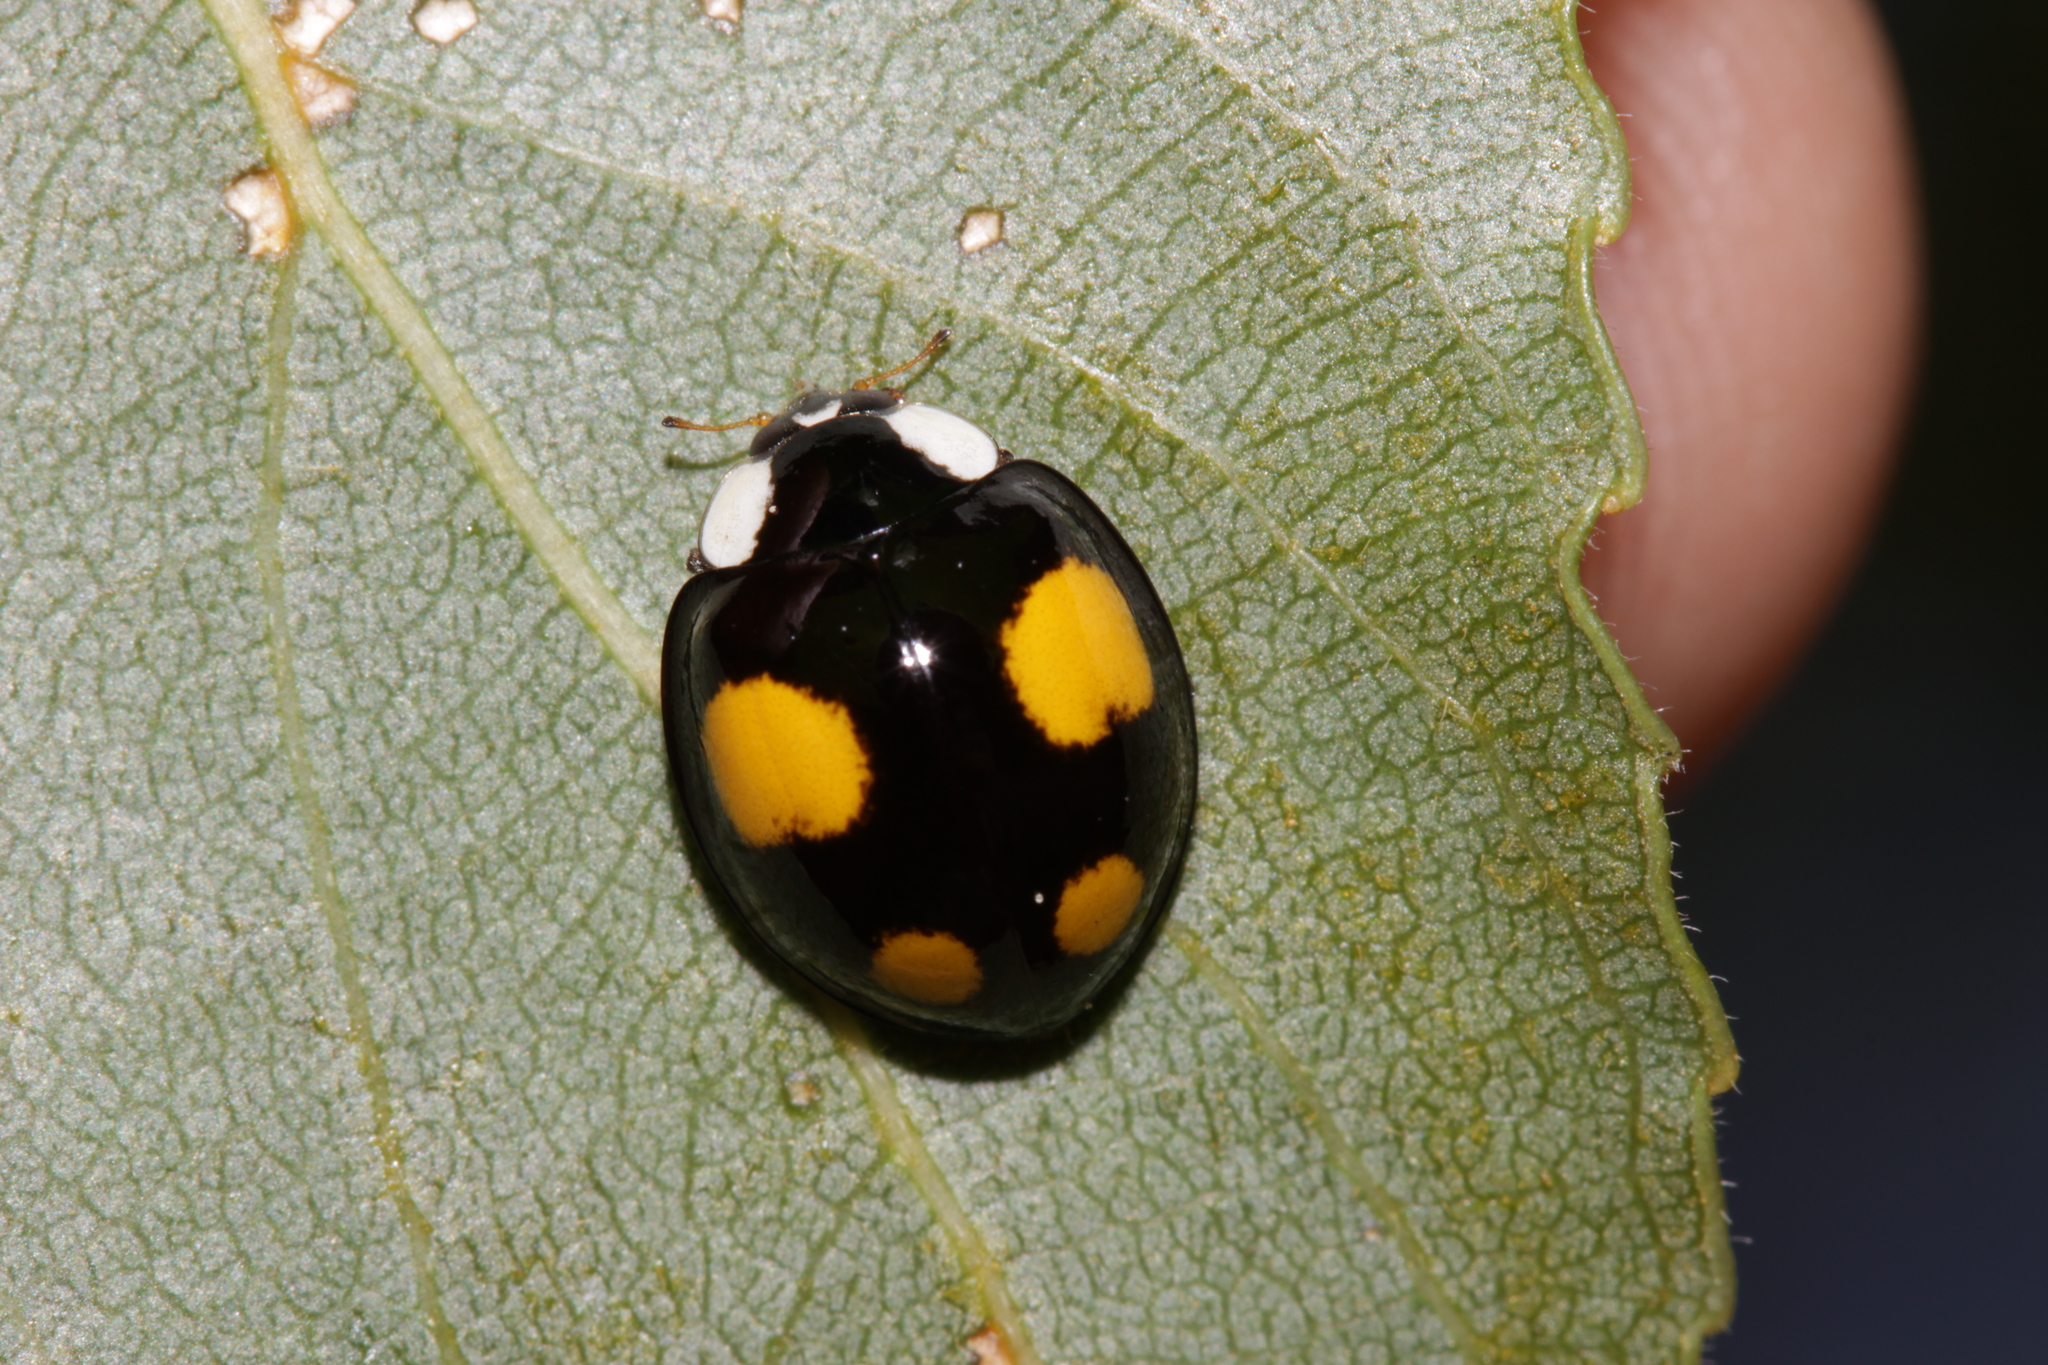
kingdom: Animalia
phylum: Arthropoda
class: Insecta
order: Coleoptera
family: Coccinellidae
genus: Harmonia
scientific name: Harmonia axyridis
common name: Harlequin ladybird
